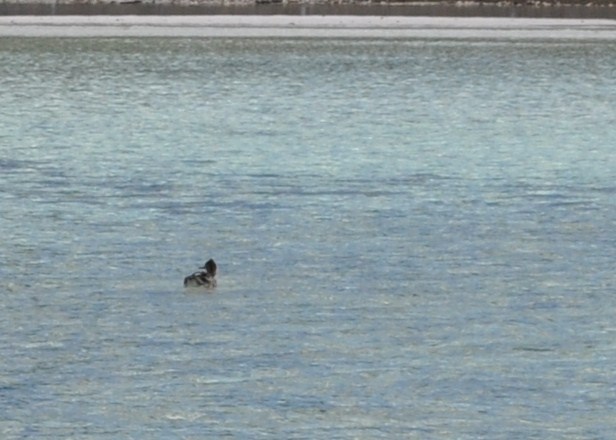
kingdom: Animalia
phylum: Chordata
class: Aves
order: Anseriformes
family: Anatidae
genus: Mergus
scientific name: Mergus serrator
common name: Red-breasted merganser
